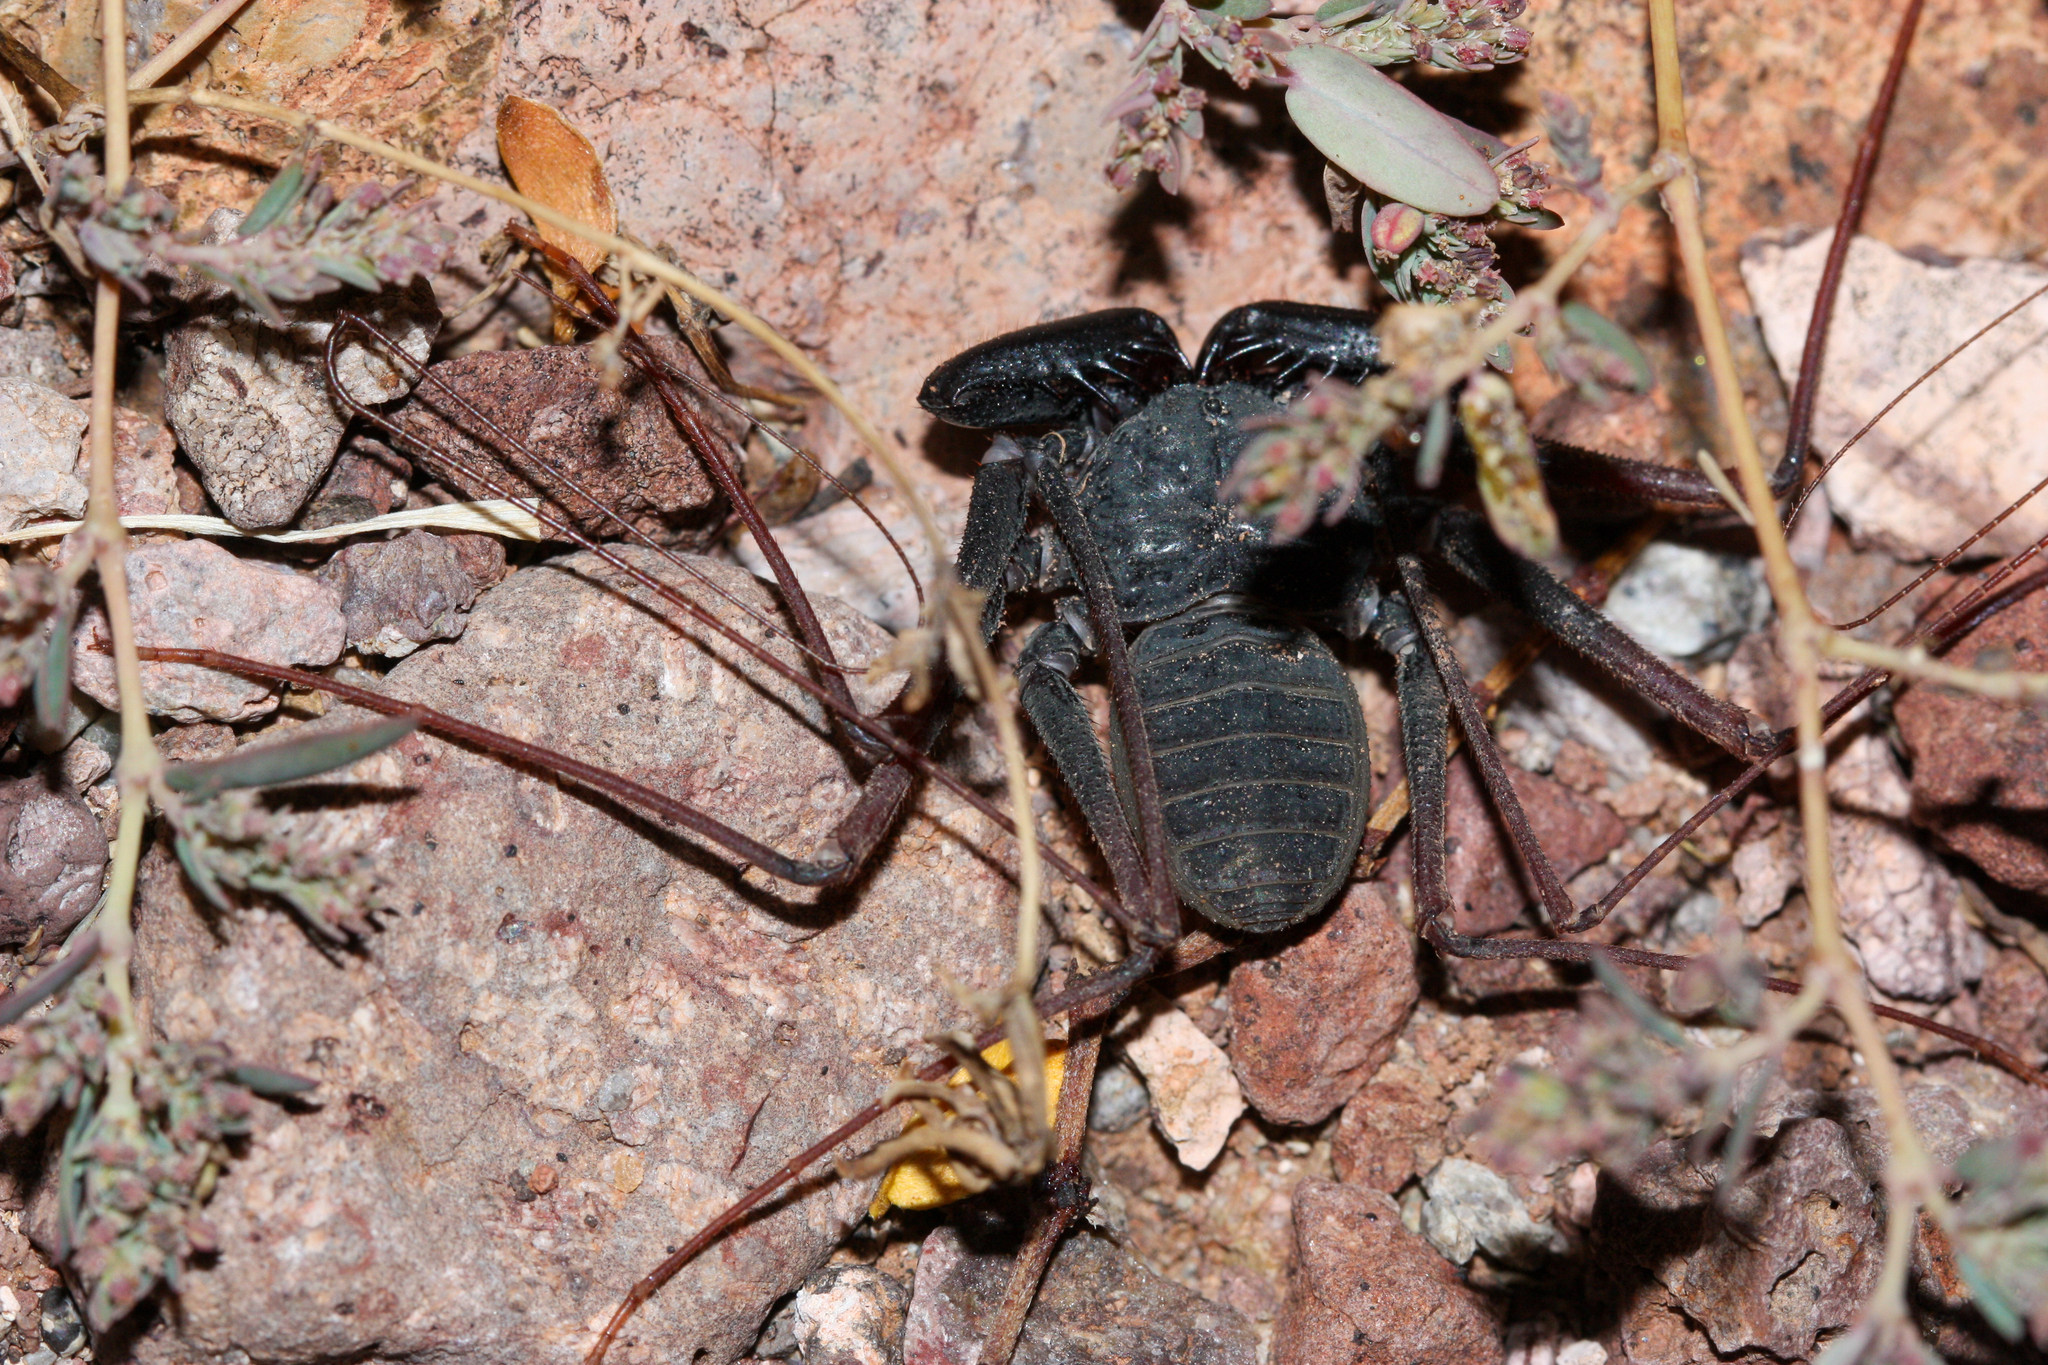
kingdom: Animalia
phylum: Arthropoda
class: Arachnida
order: Amblypygi
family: Phrynidae
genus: Paraphrynus
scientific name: Paraphrynus carolynae
